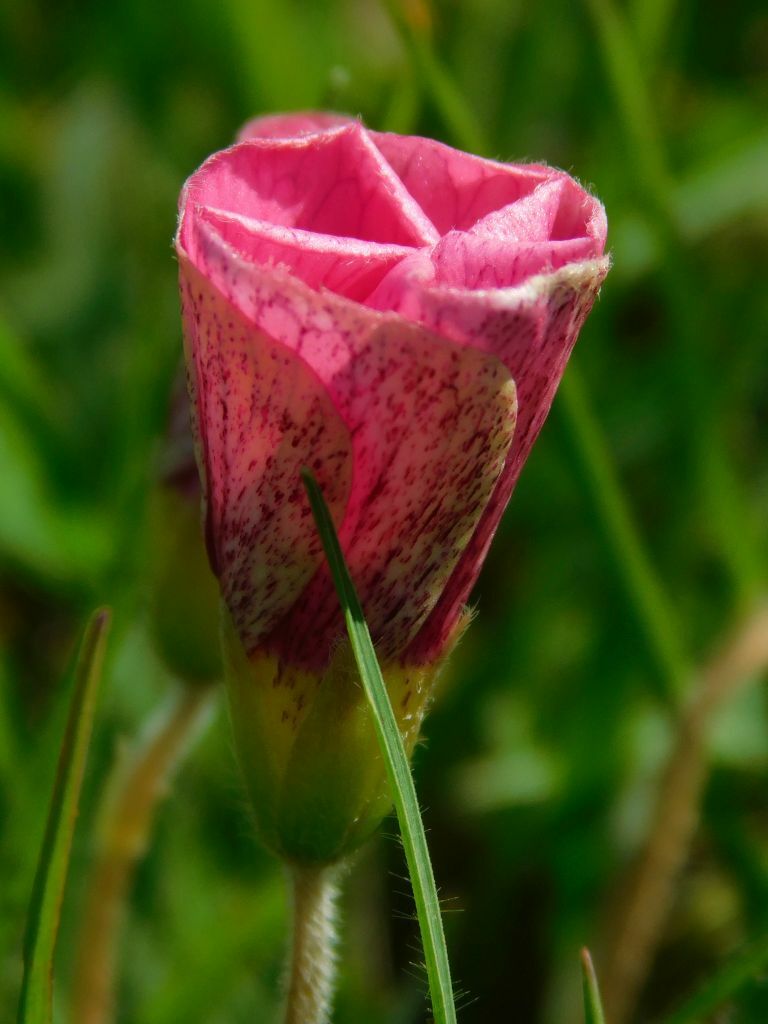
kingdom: Plantae
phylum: Tracheophyta
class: Magnoliopsida
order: Oxalidales
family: Oxalidaceae
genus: Oxalis
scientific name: Oxalis obtusa
